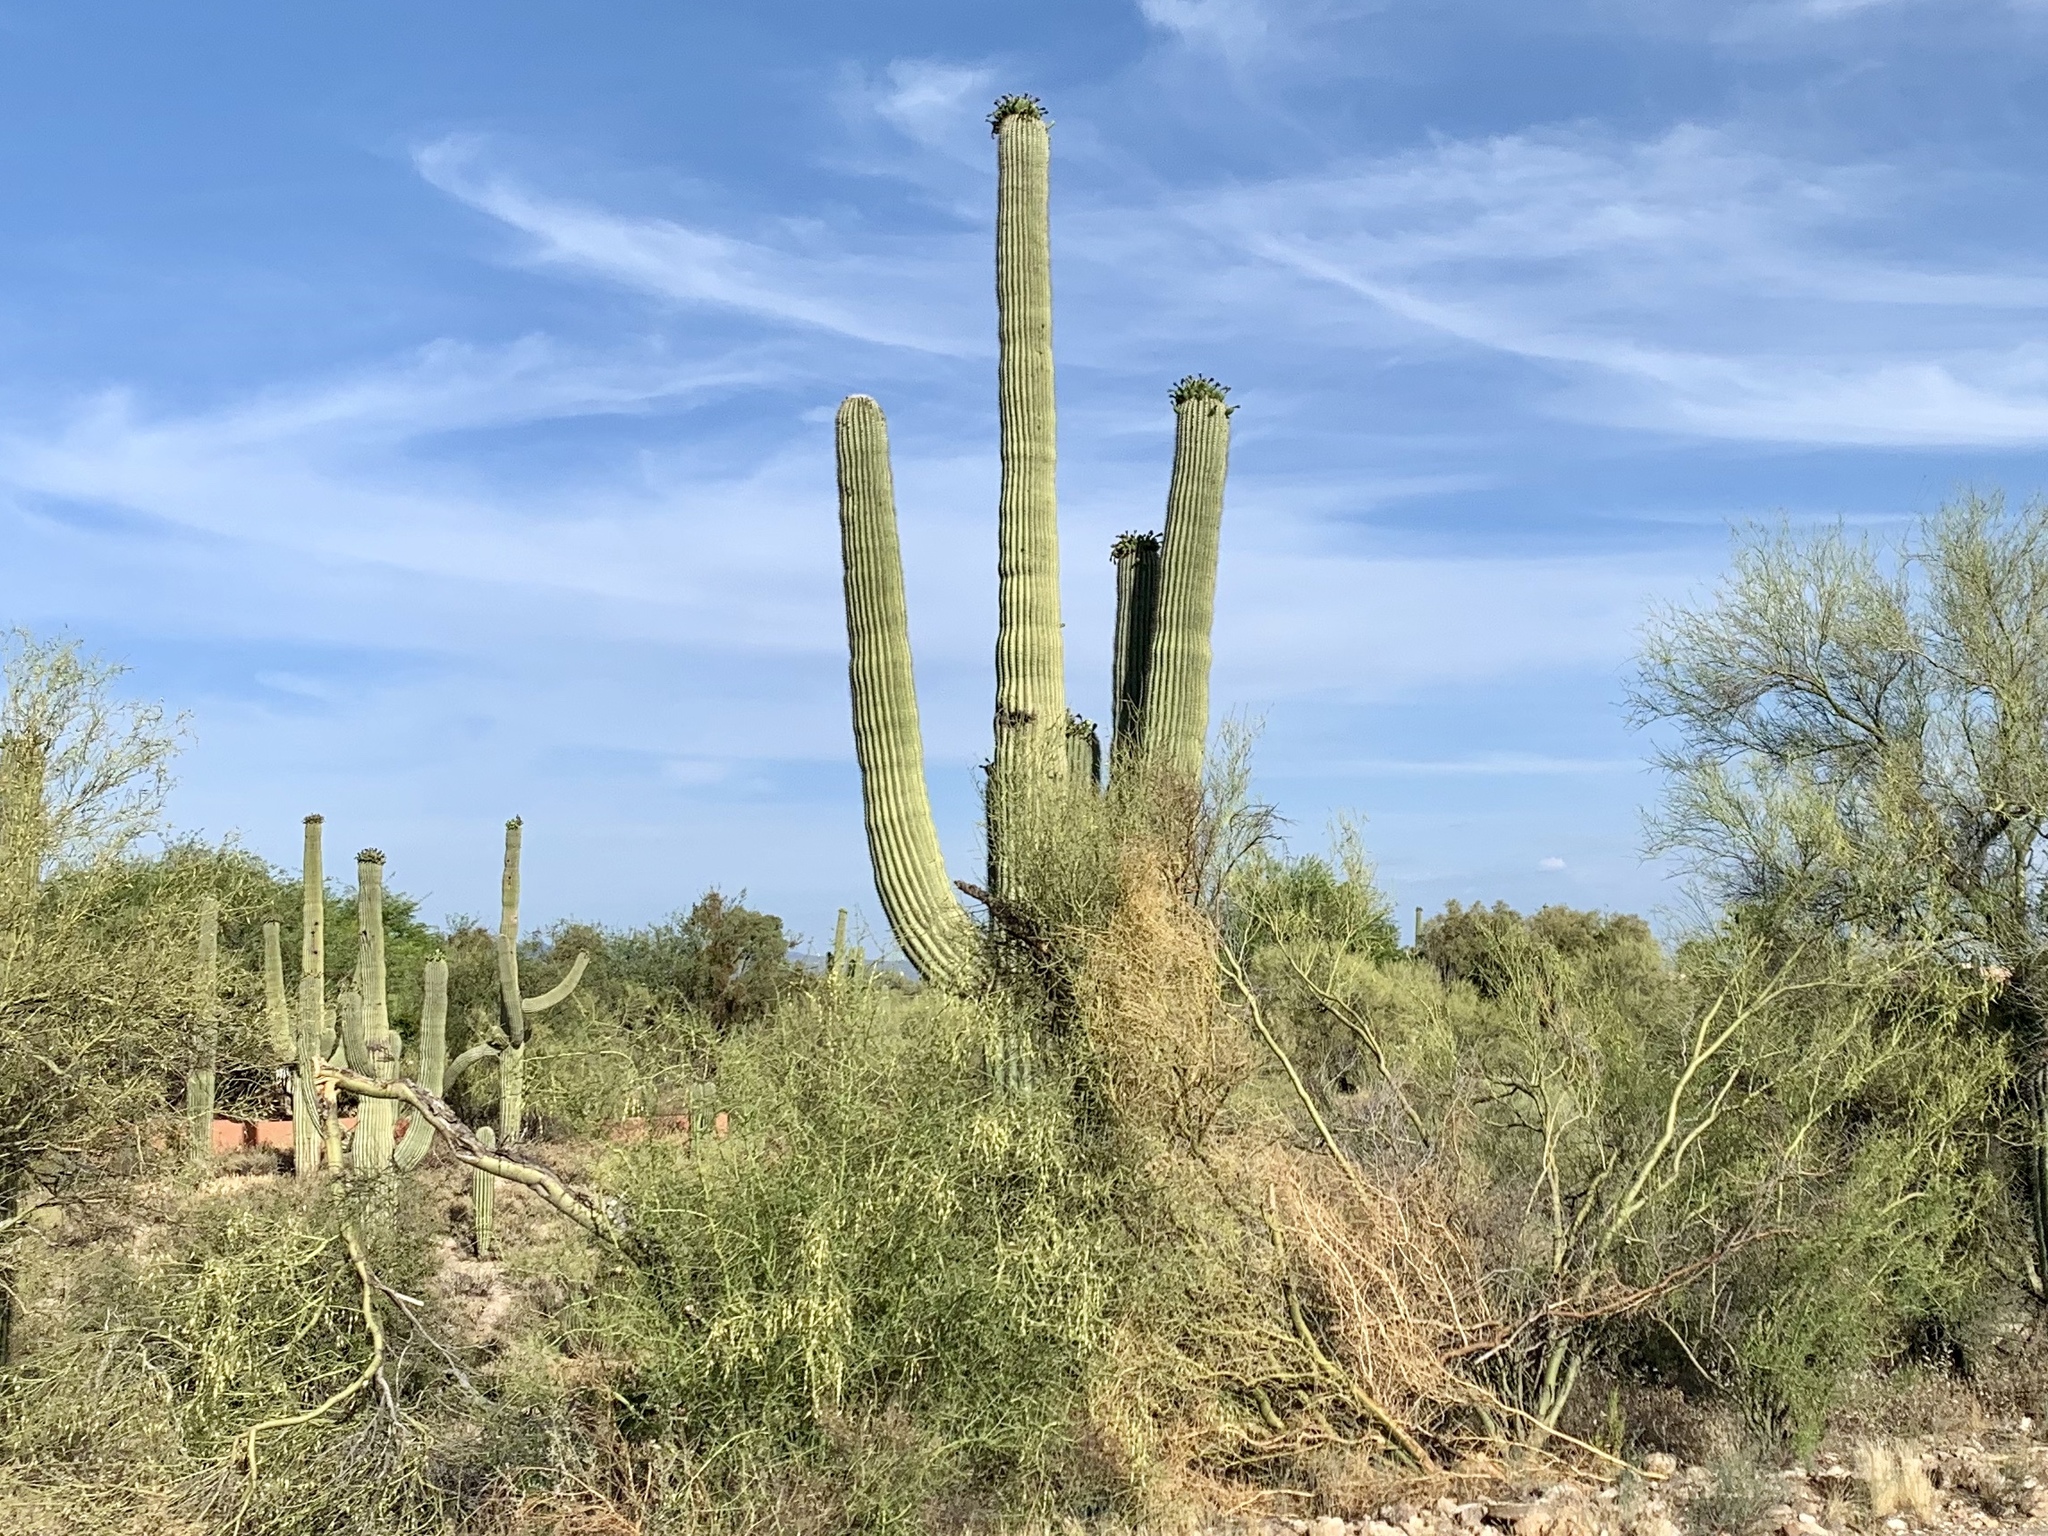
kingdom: Plantae
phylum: Tracheophyta
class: Magnoliopsida
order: Caryophyllales
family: Cactaceae
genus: Carnegiea
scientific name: Carnegiea gigantea
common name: Saguaro
